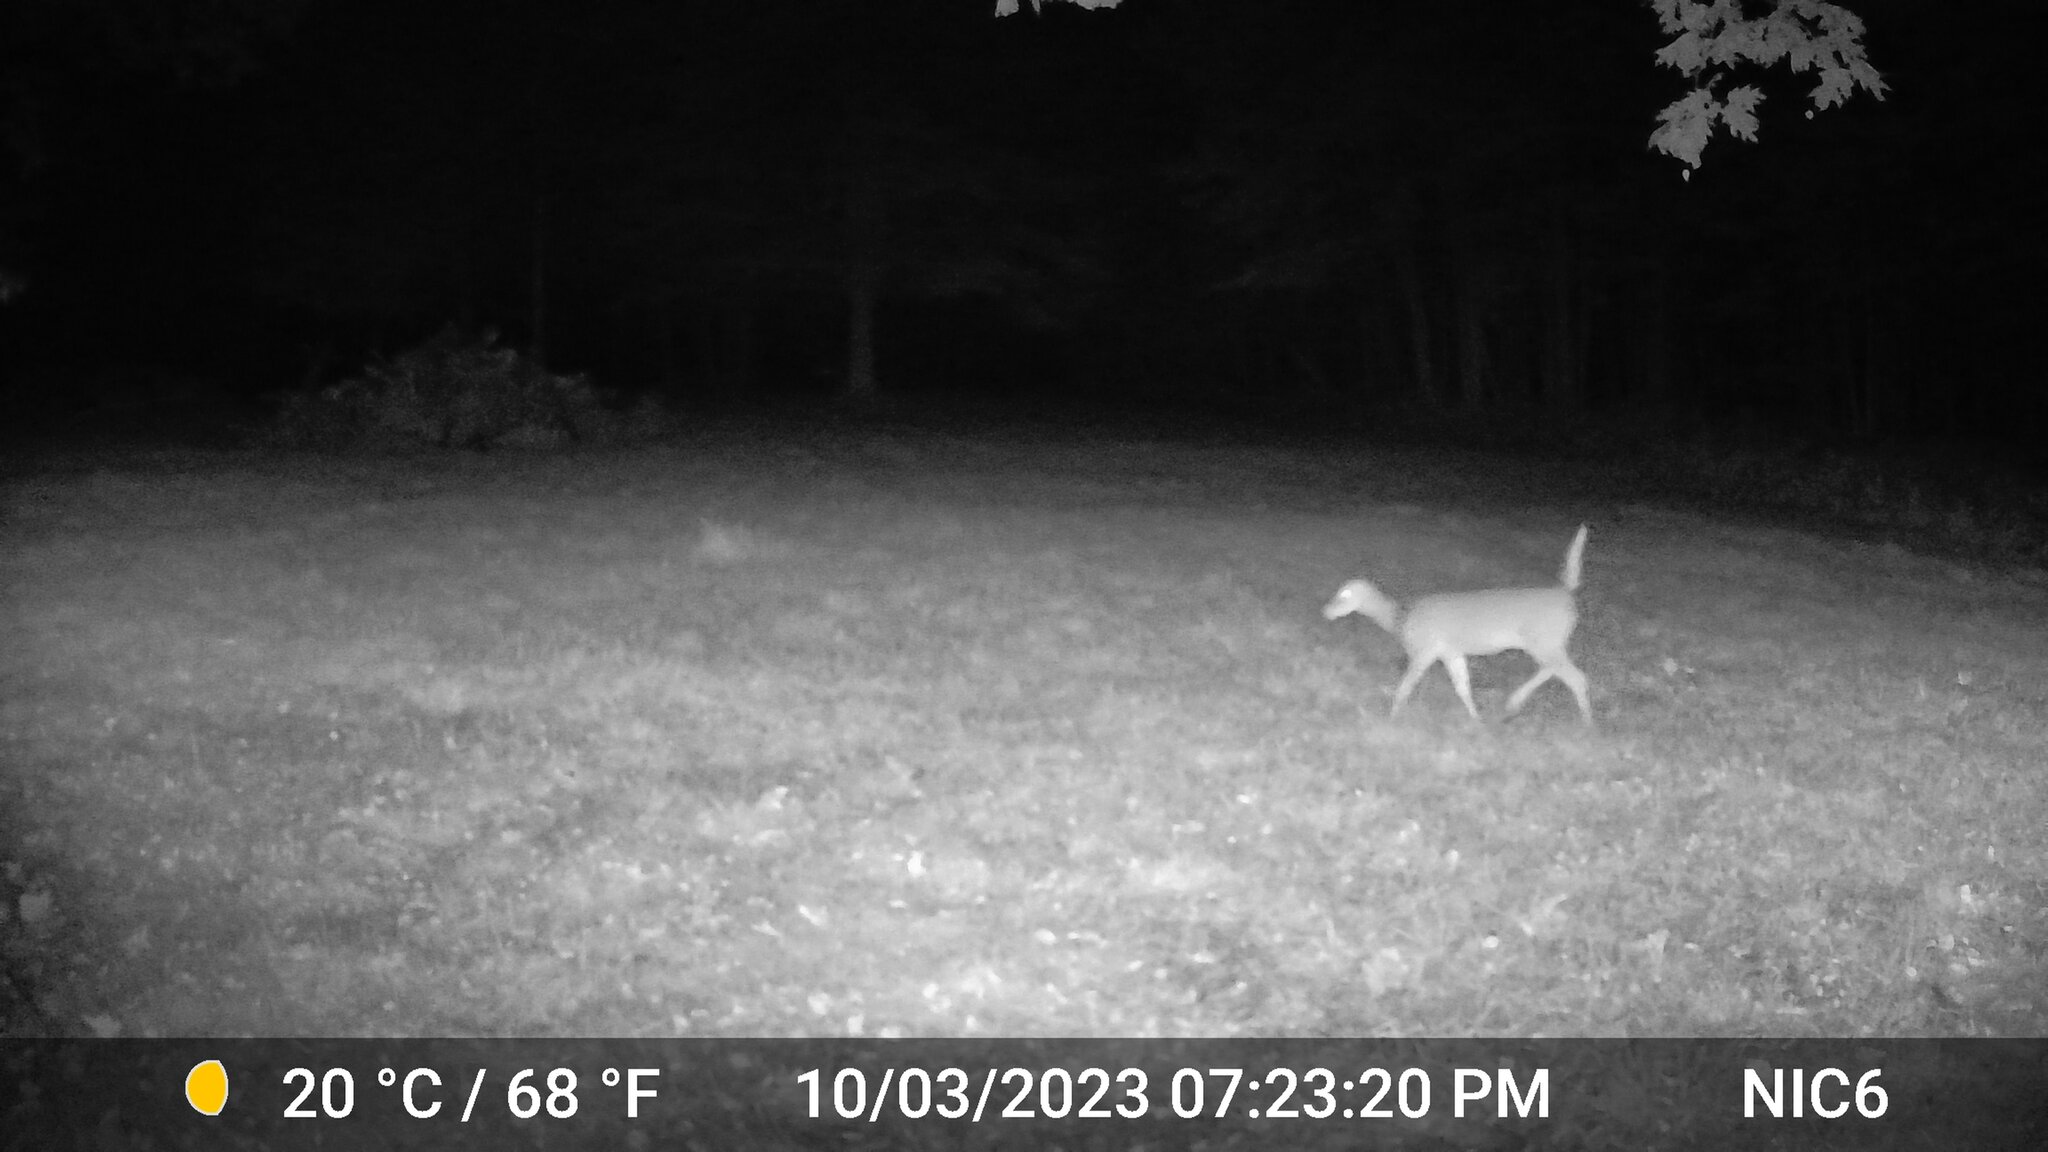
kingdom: Animalia
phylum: Chordata
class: Mammalia
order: Artiodactyla
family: Cervidae
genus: Odocoileus
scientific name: Odocoileus virginianus
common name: White-tailed deer
